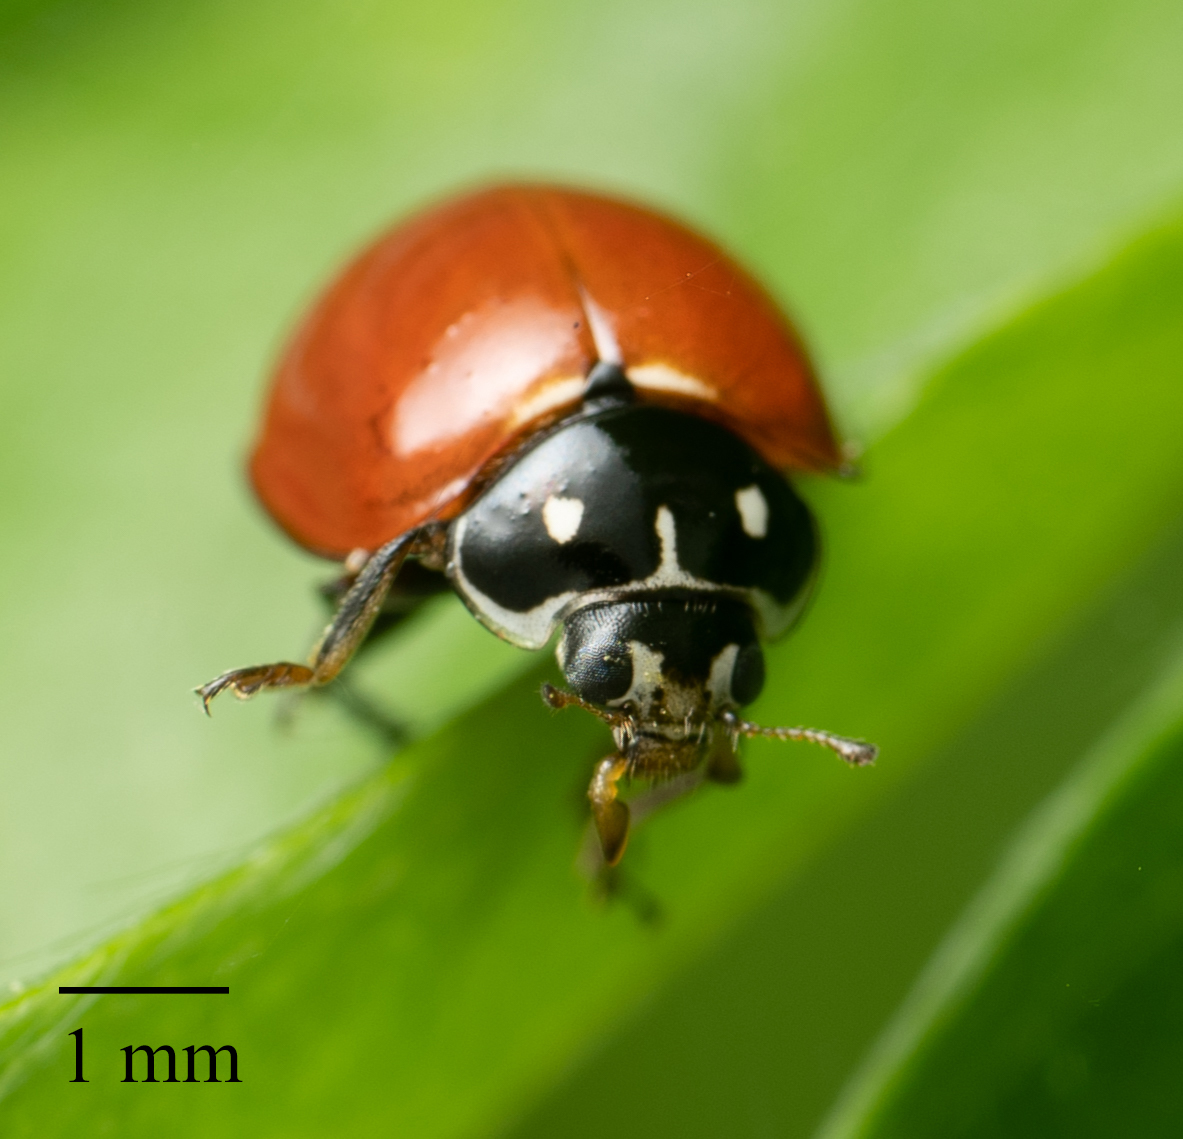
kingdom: Animalia
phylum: Arthropoda
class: Insecta
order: Coleoptera
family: Coccinellidae
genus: Cycloneda
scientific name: Cycloneda sanguinea
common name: Ladybird beetle
